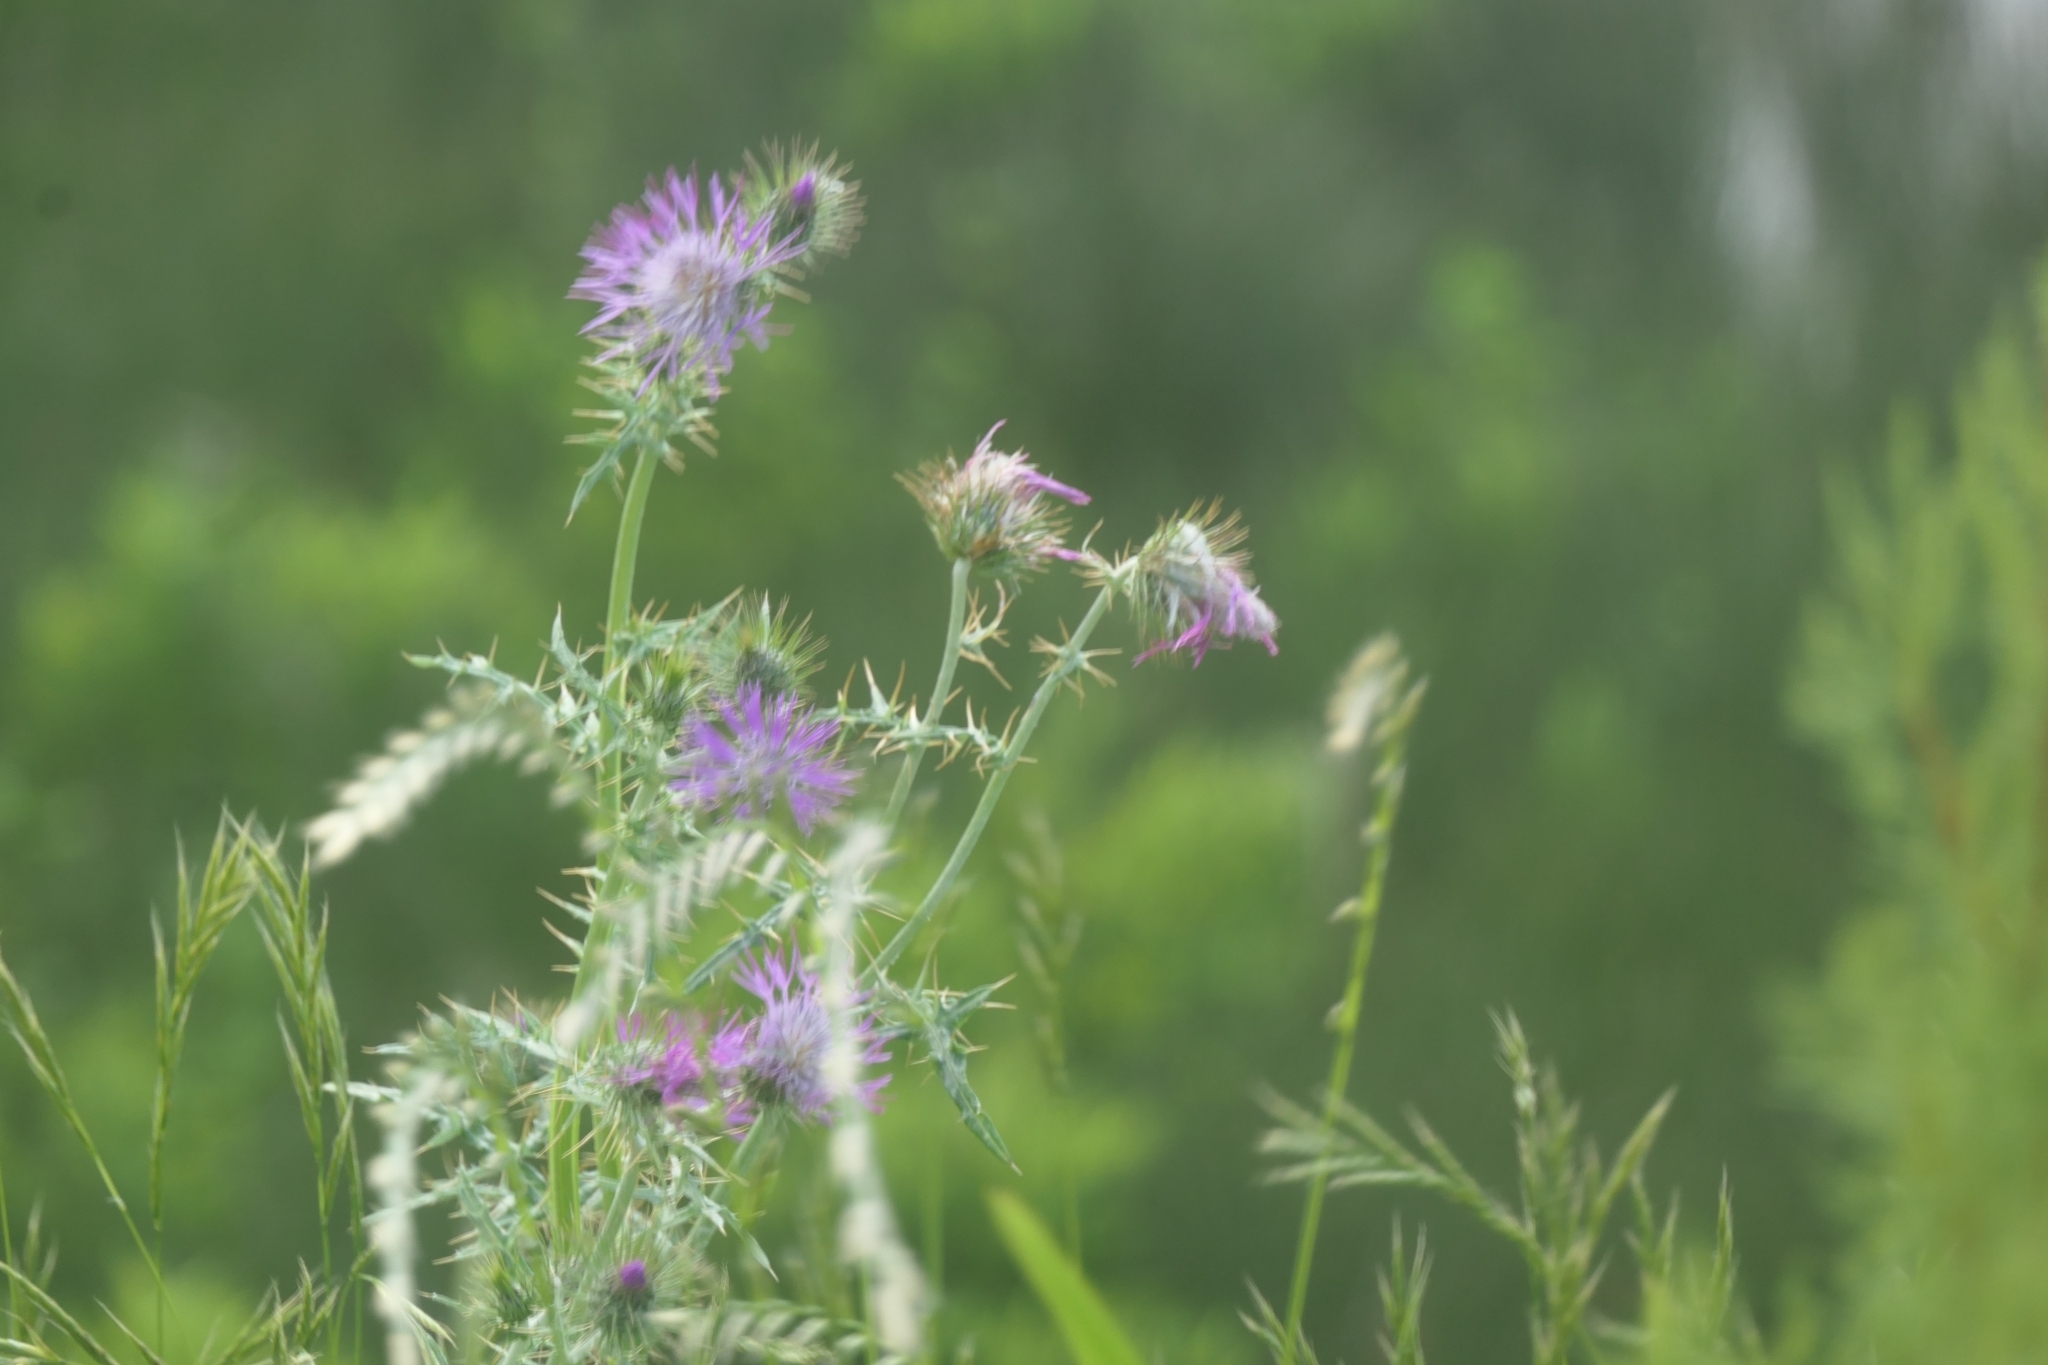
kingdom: Plantae
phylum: Tracheophyta
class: Magnoliopsida
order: Asterales
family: Asteraceae
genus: Galactites
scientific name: Galactites tomentosa
